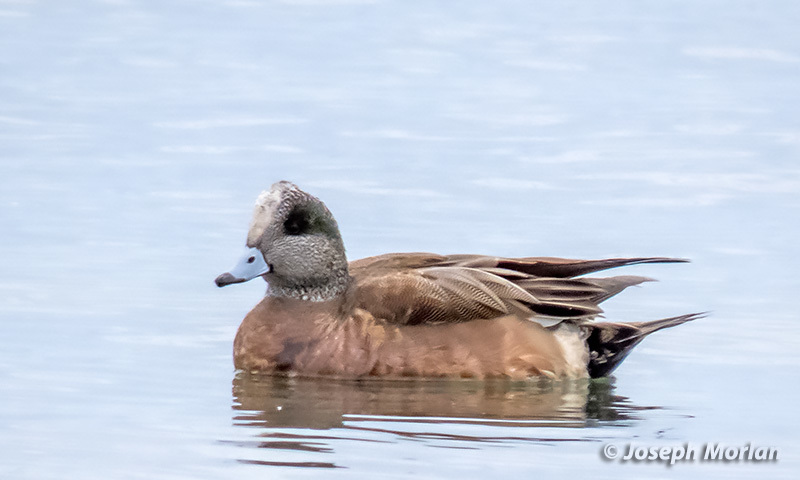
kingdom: Animalia
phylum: Chordata
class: Aves
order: Anseriformes
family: Anatidae
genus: Mareca
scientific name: Mareca americana
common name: American wigeon
